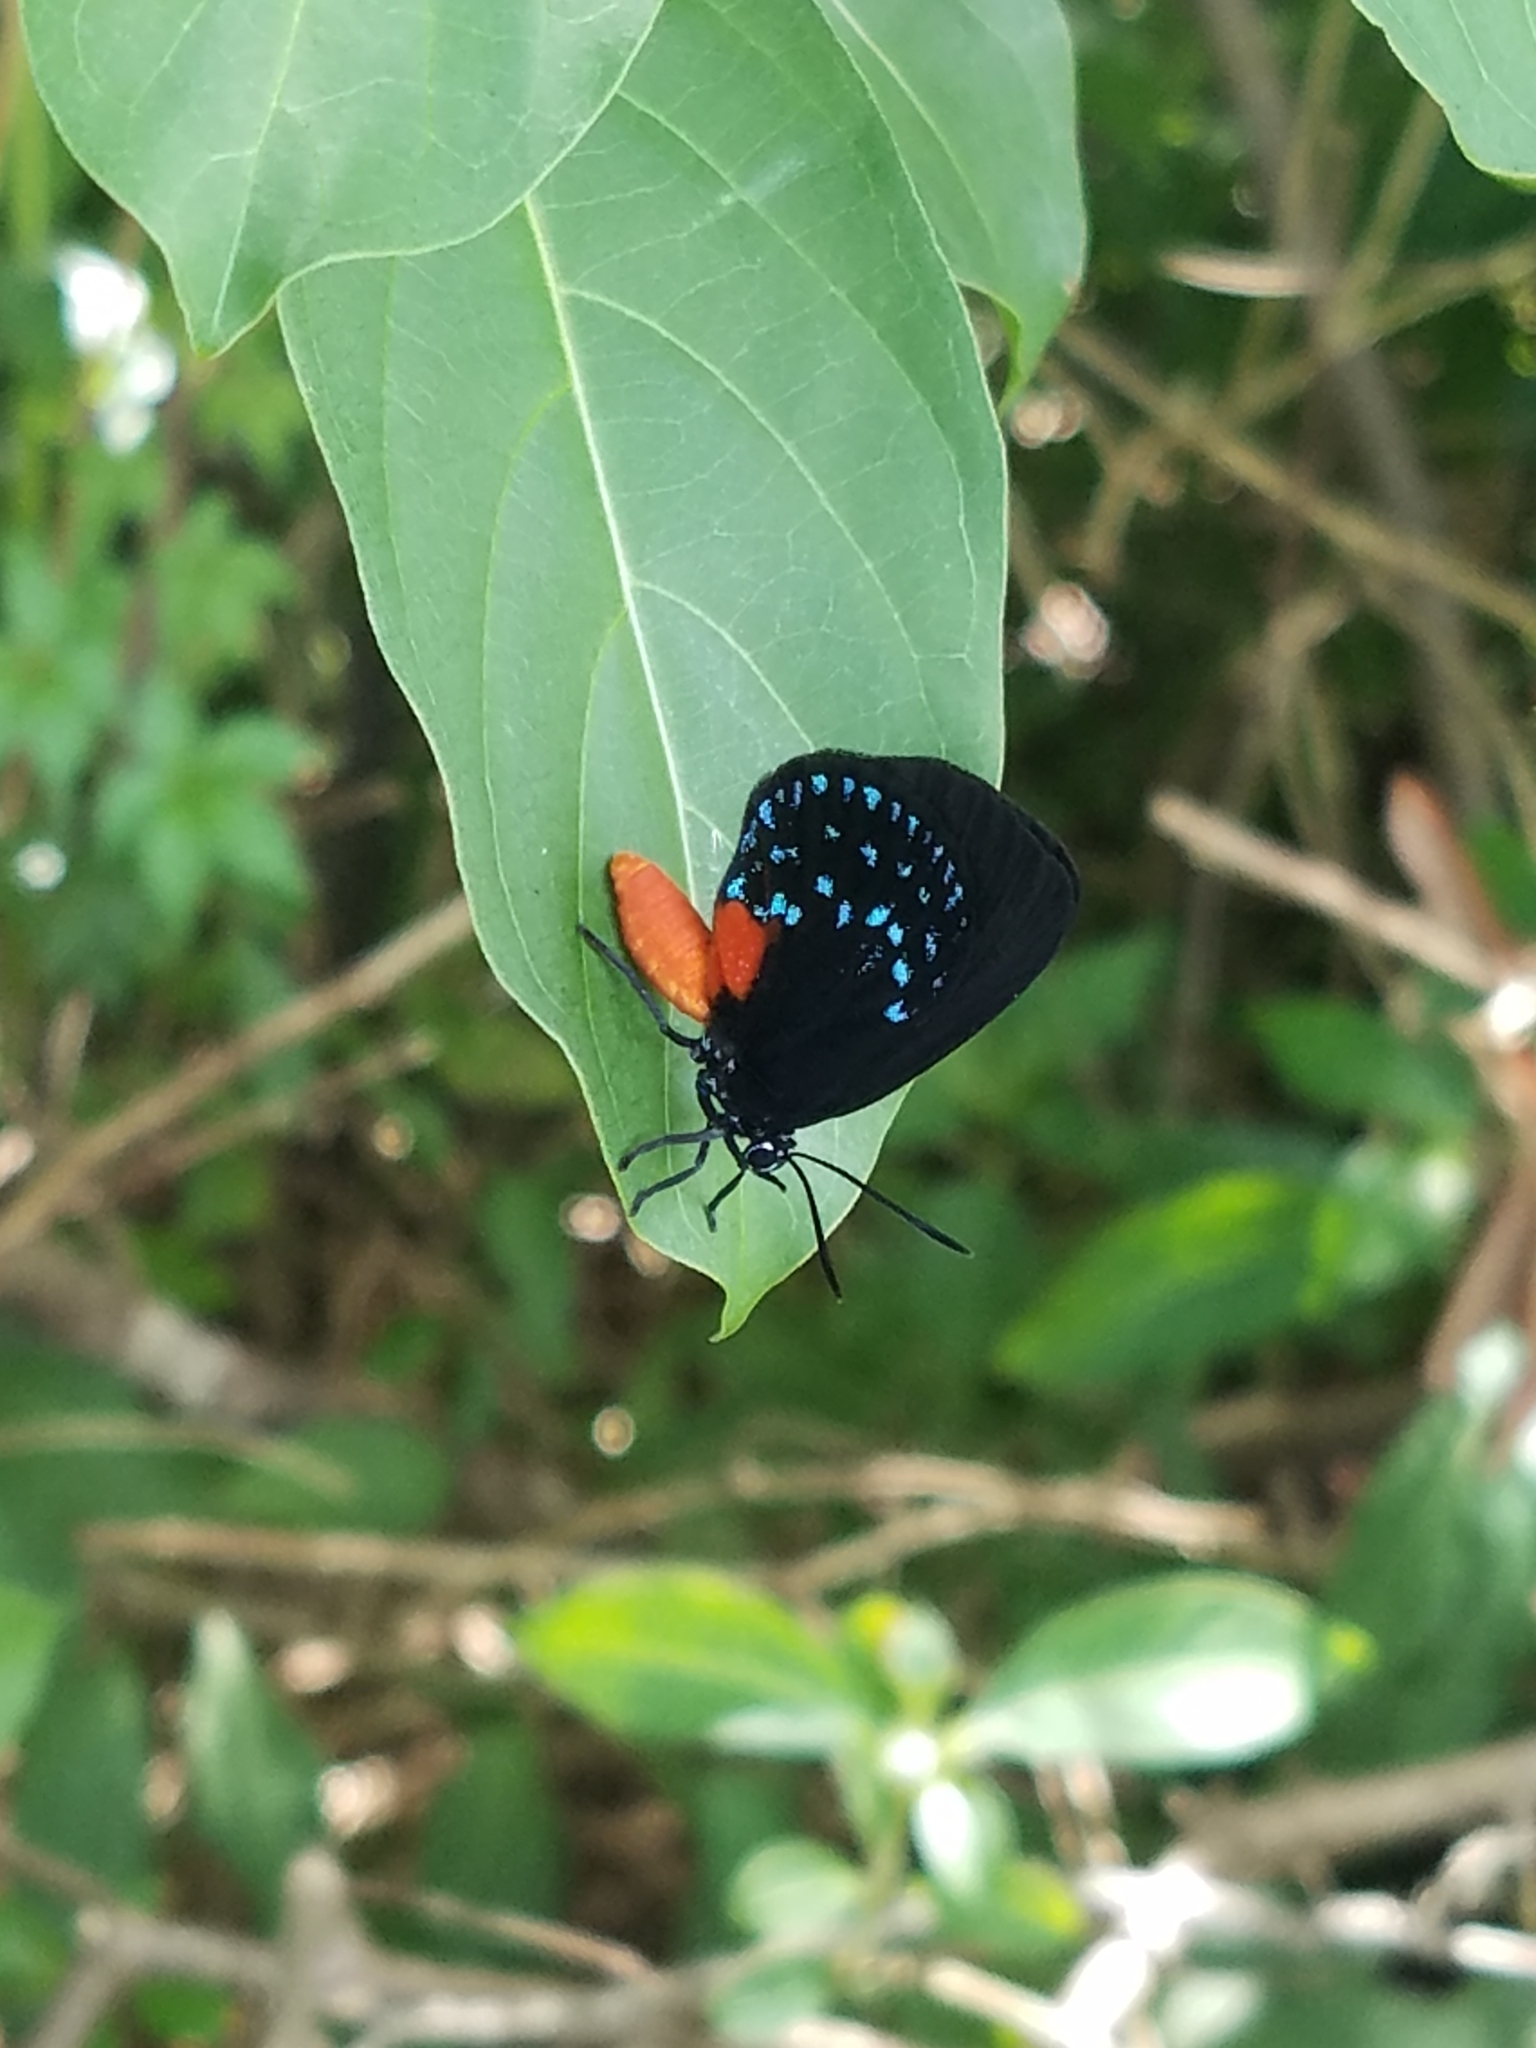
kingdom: Animalia
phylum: Arthropoda
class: Insecta
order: Lepidoptera
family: Lycaenidae
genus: Eumaeus
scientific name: Eumaeus atala
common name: Atala
